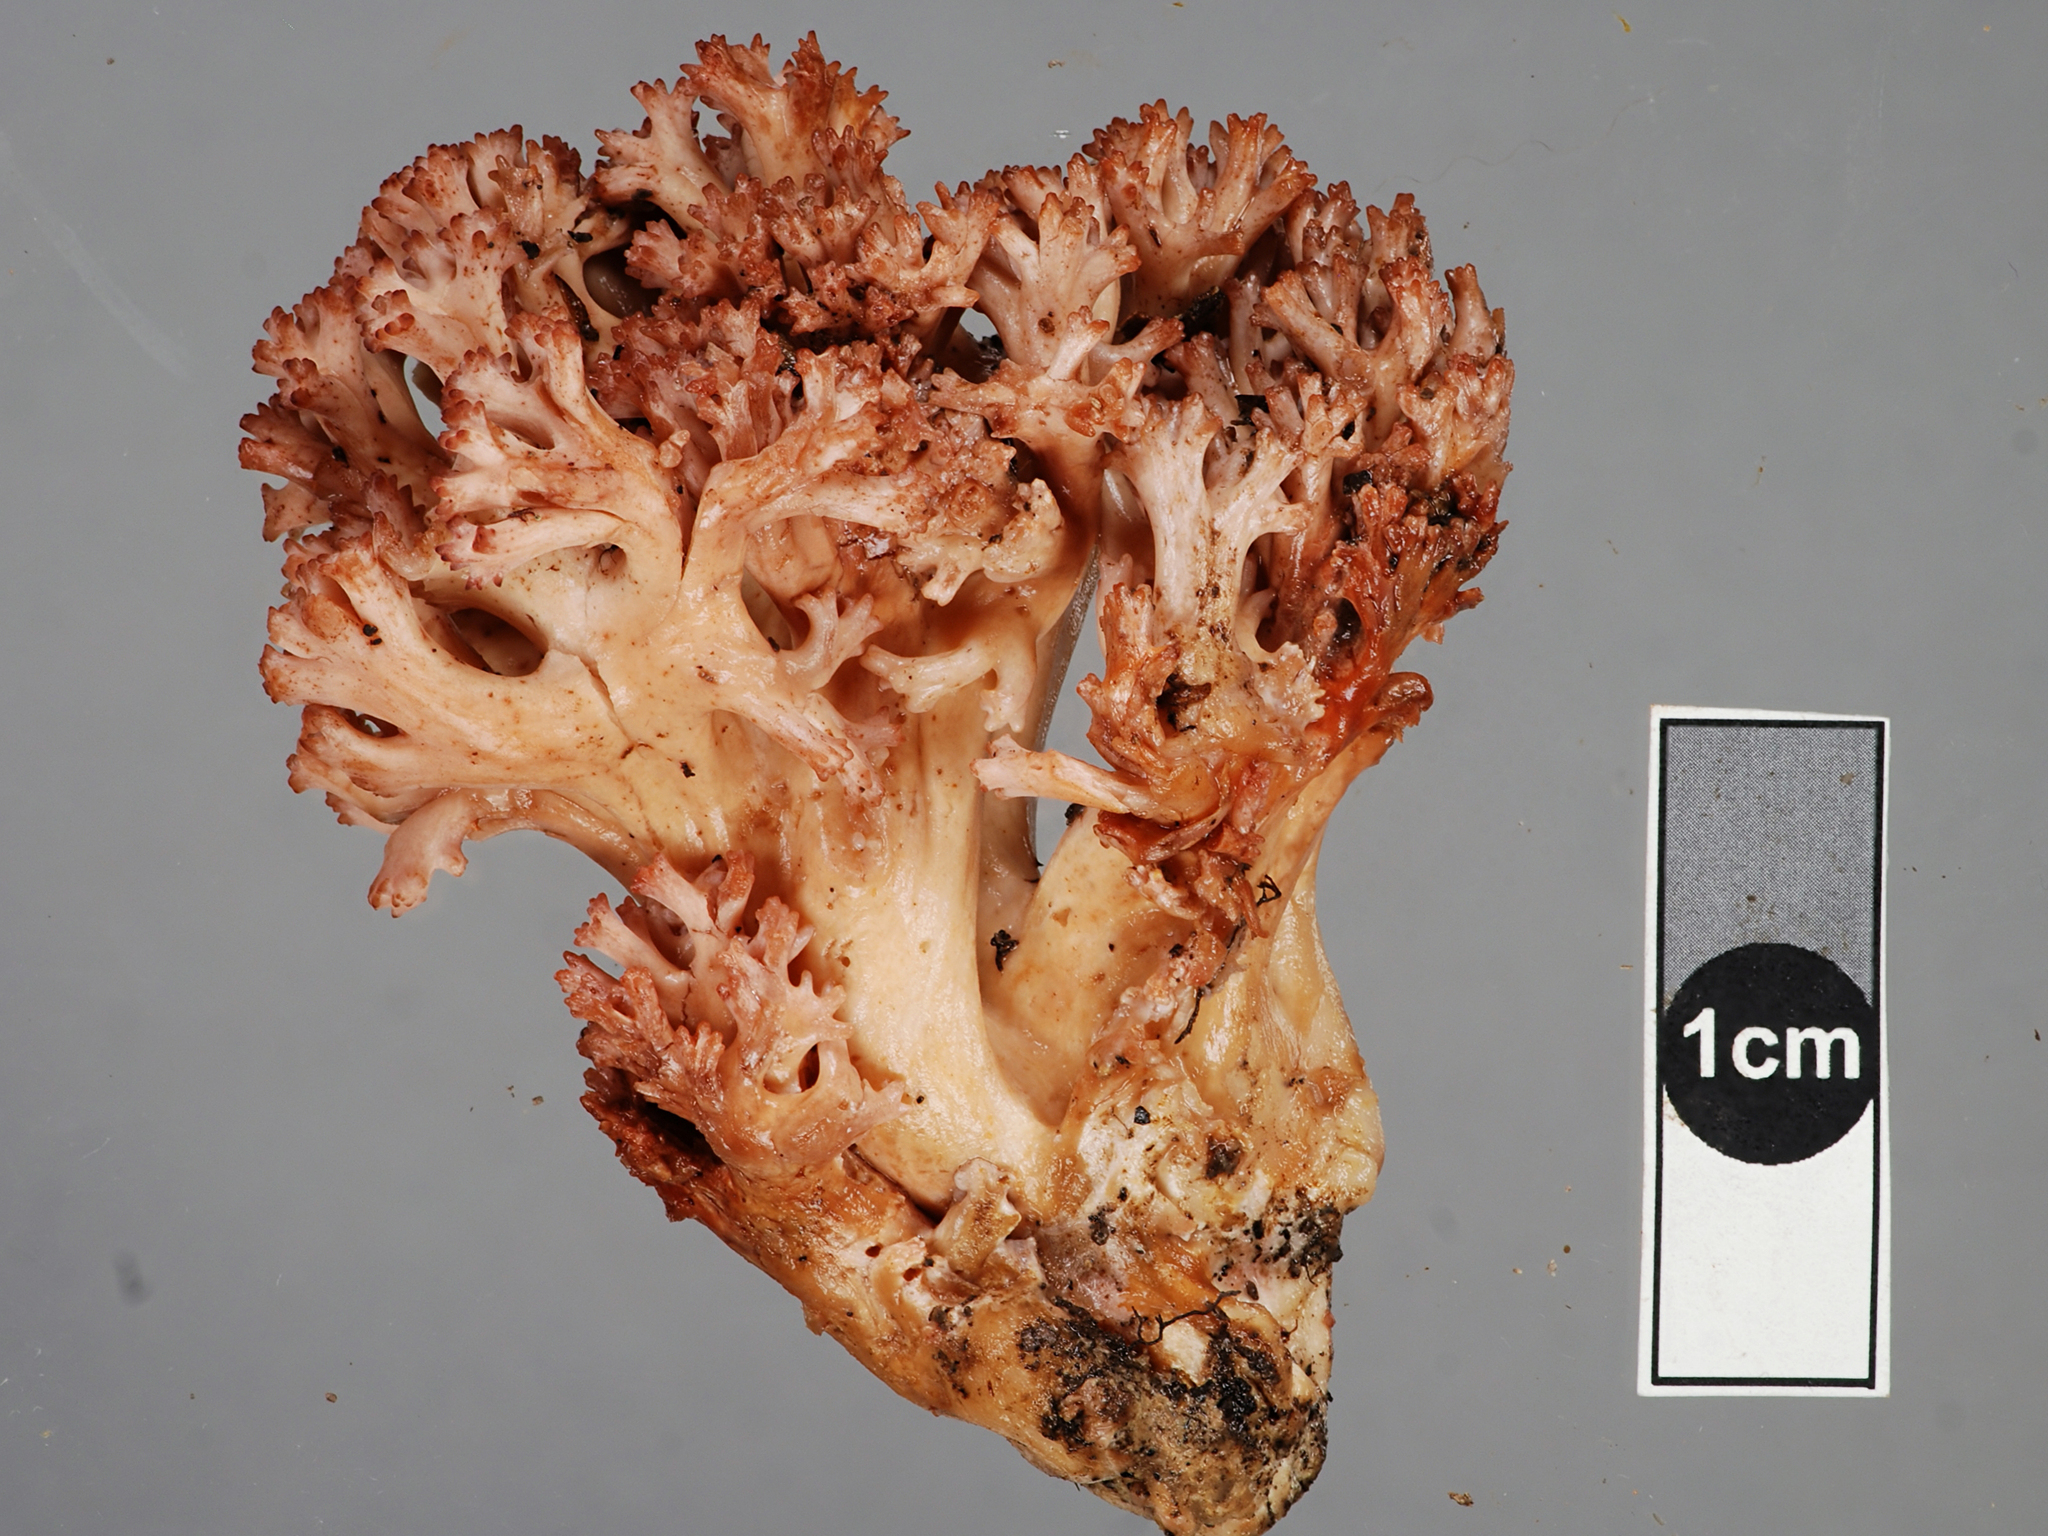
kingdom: Fungi
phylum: Basidiomycota
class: Agaricomycetes
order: Gomphales
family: Gomphaceae
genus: Ramaria
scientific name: Ramaria
